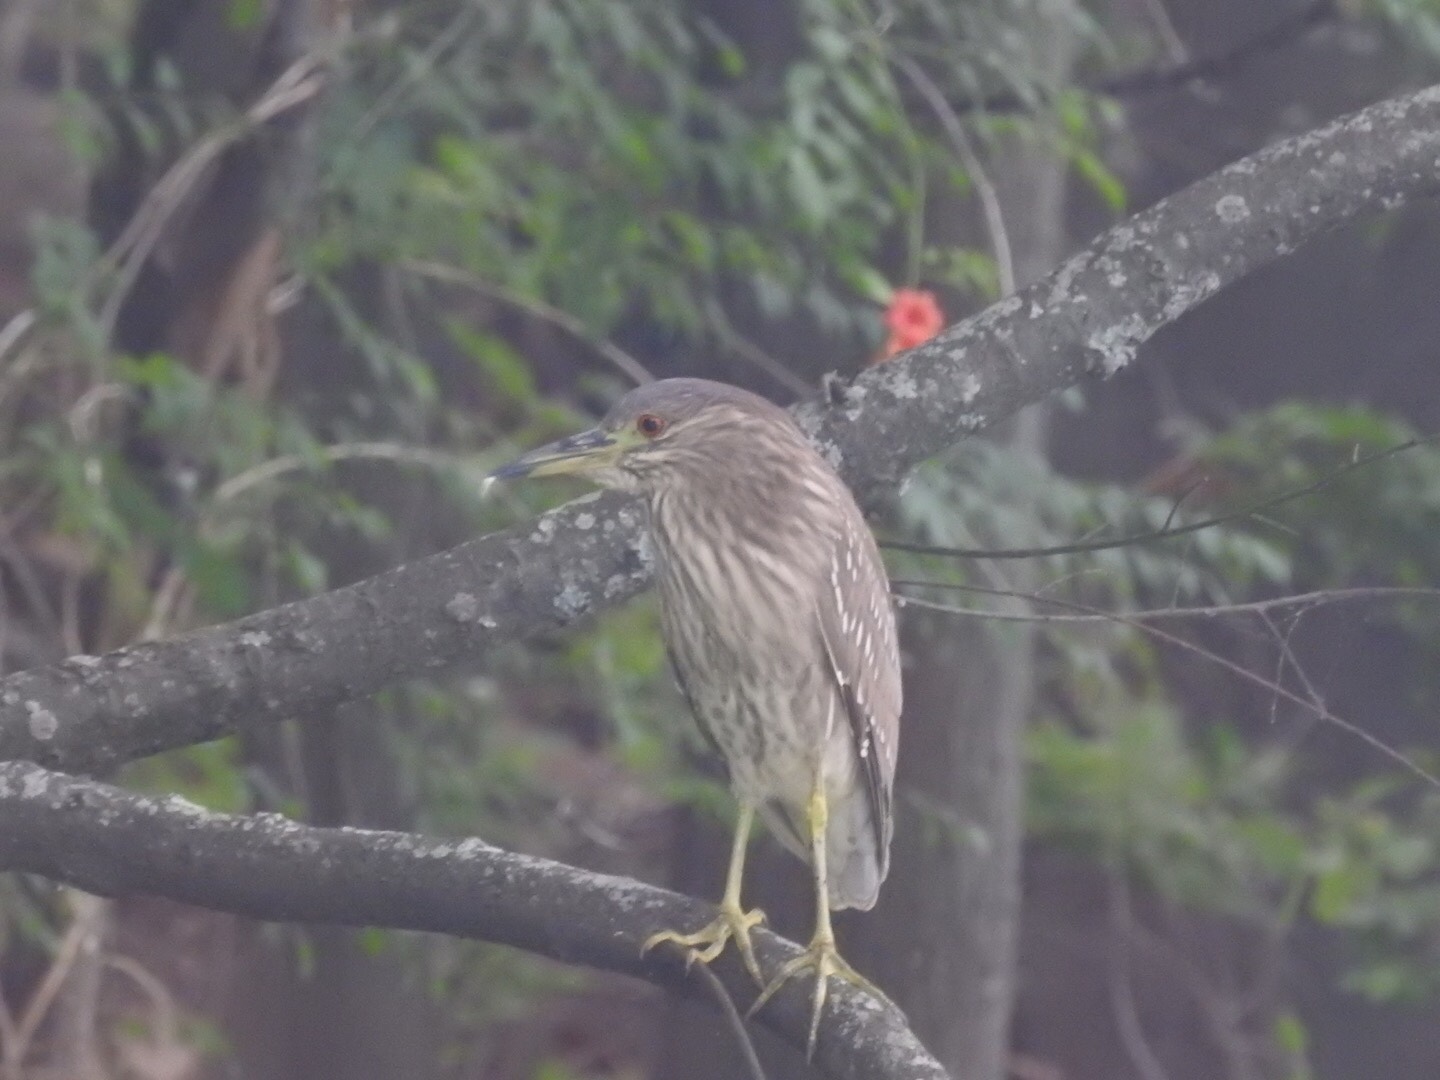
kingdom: Animalia
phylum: Chordata
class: Aves
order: Pelecaniformes
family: Ardeidae
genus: Nycticorax
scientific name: Nycticorax nycticorax
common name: Black-crowned night heron
